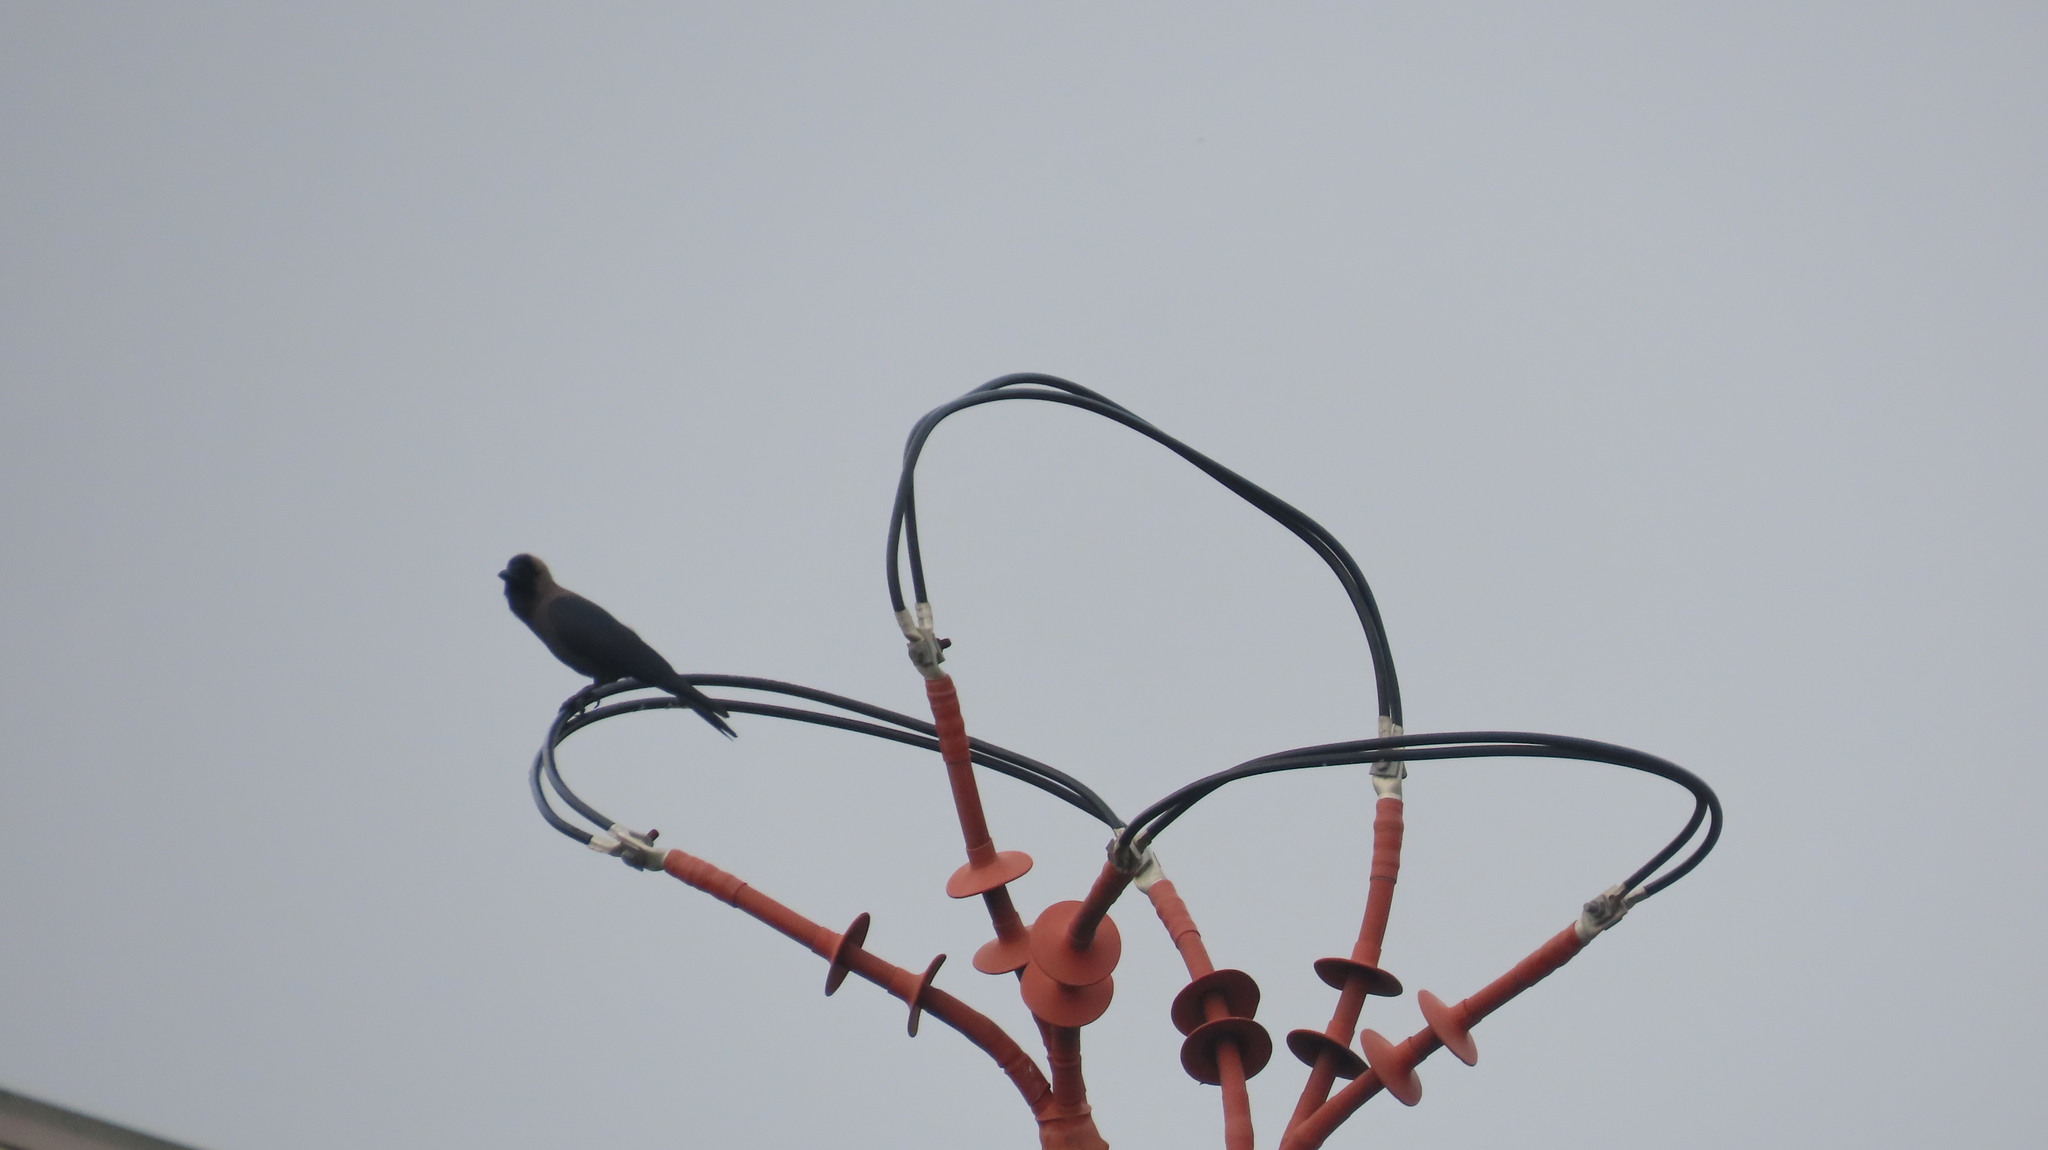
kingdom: Animalia
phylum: Chordata
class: Aves
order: Passeriformes
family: Corvidae
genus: Corvus
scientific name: Corvus splendens
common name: House crow
